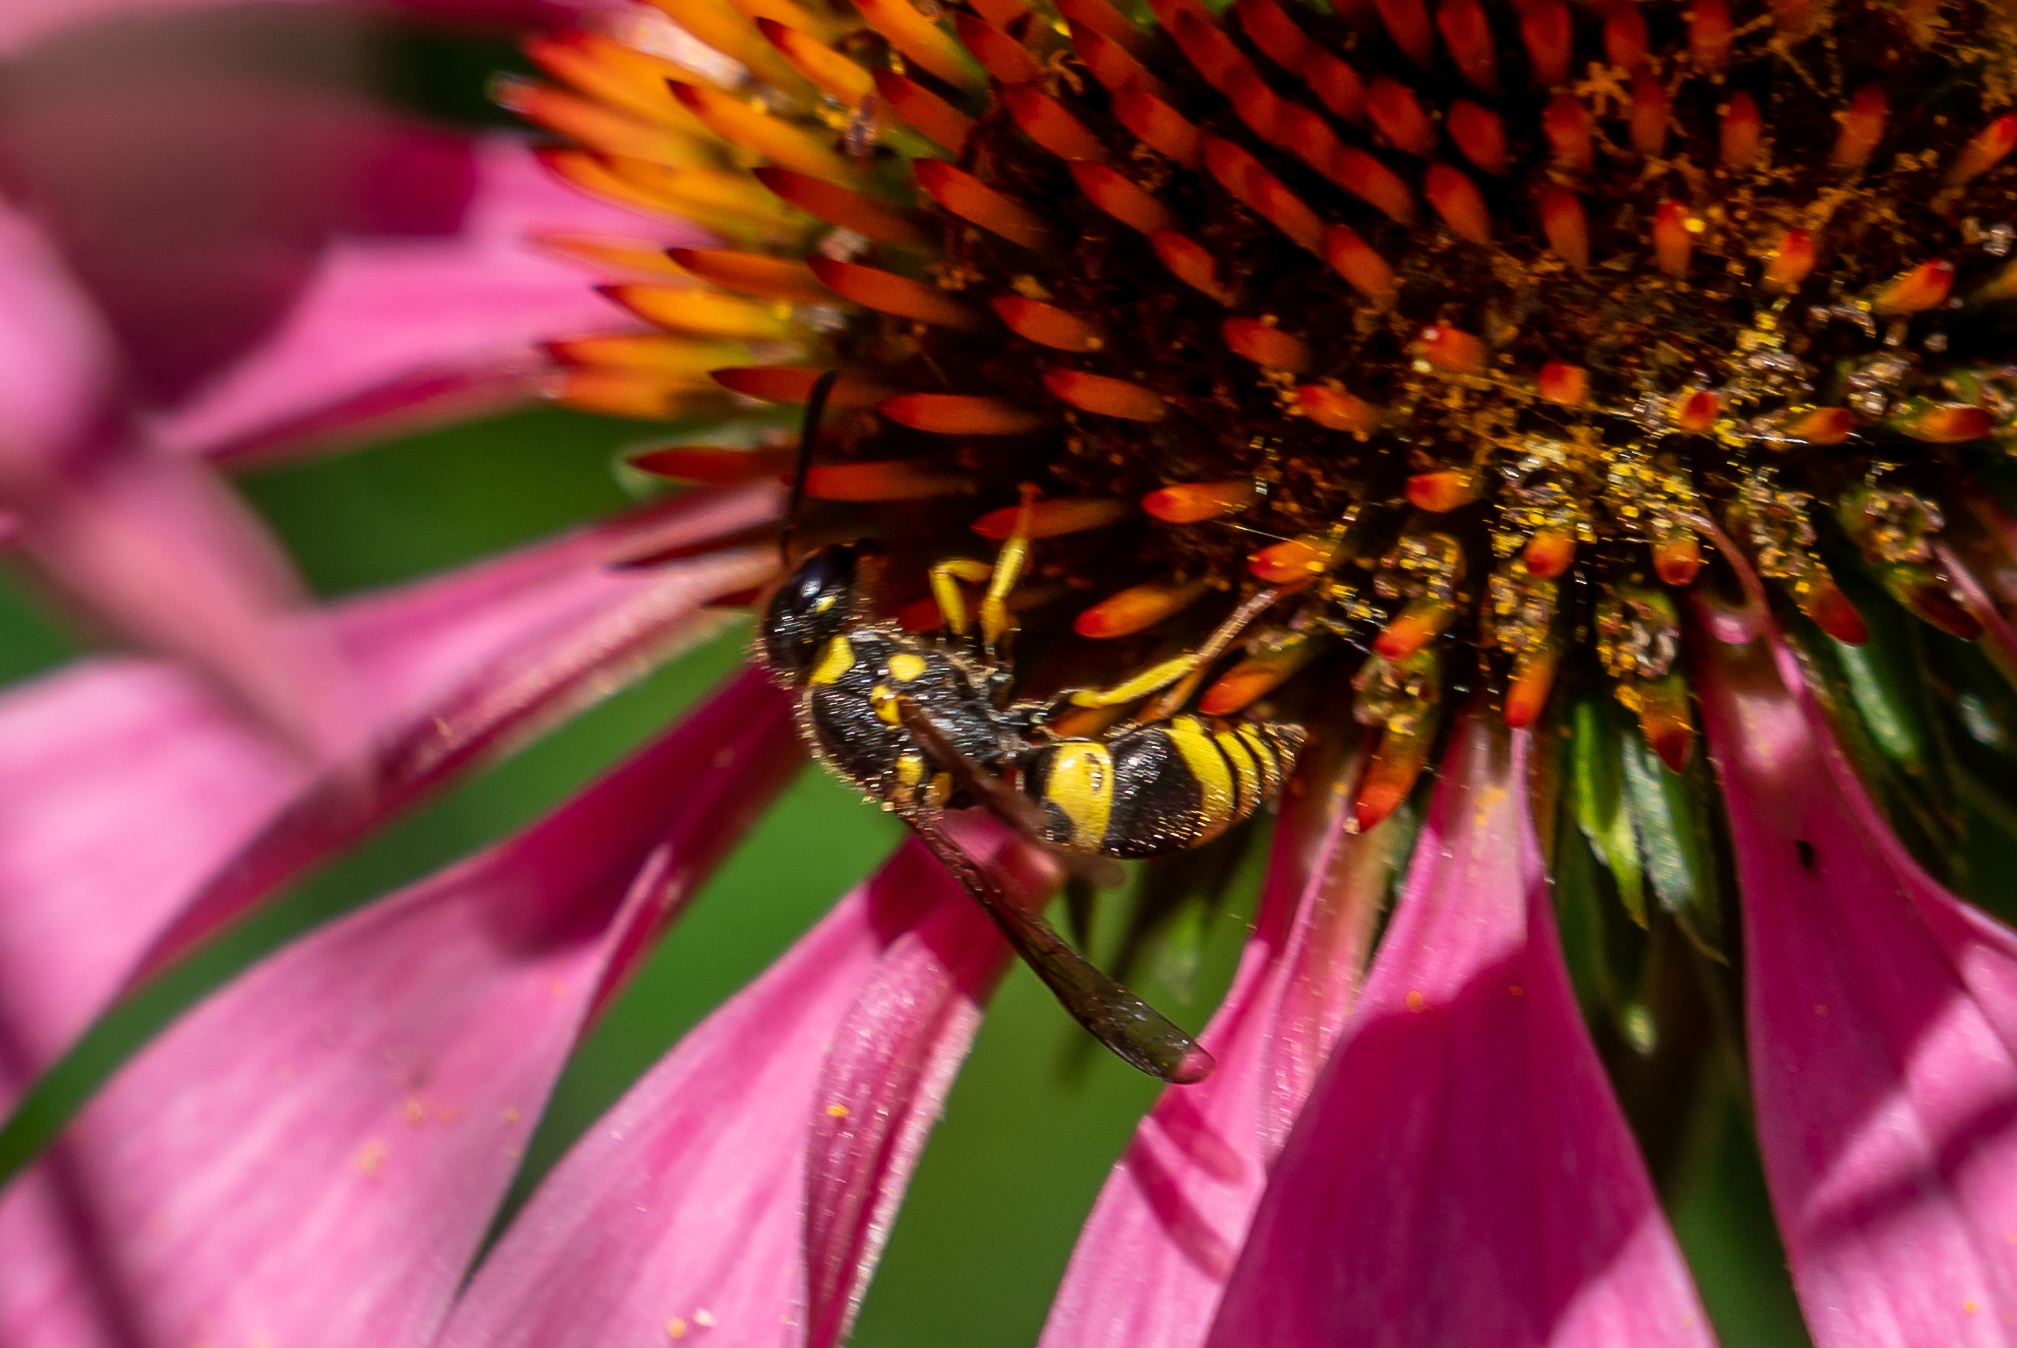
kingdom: Animalia
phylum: Arthropoda
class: Insecta
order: Hymenoptera
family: Vespidae
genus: Ancistrocerus
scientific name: Ancistrocerus gazella
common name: European tube wasp
